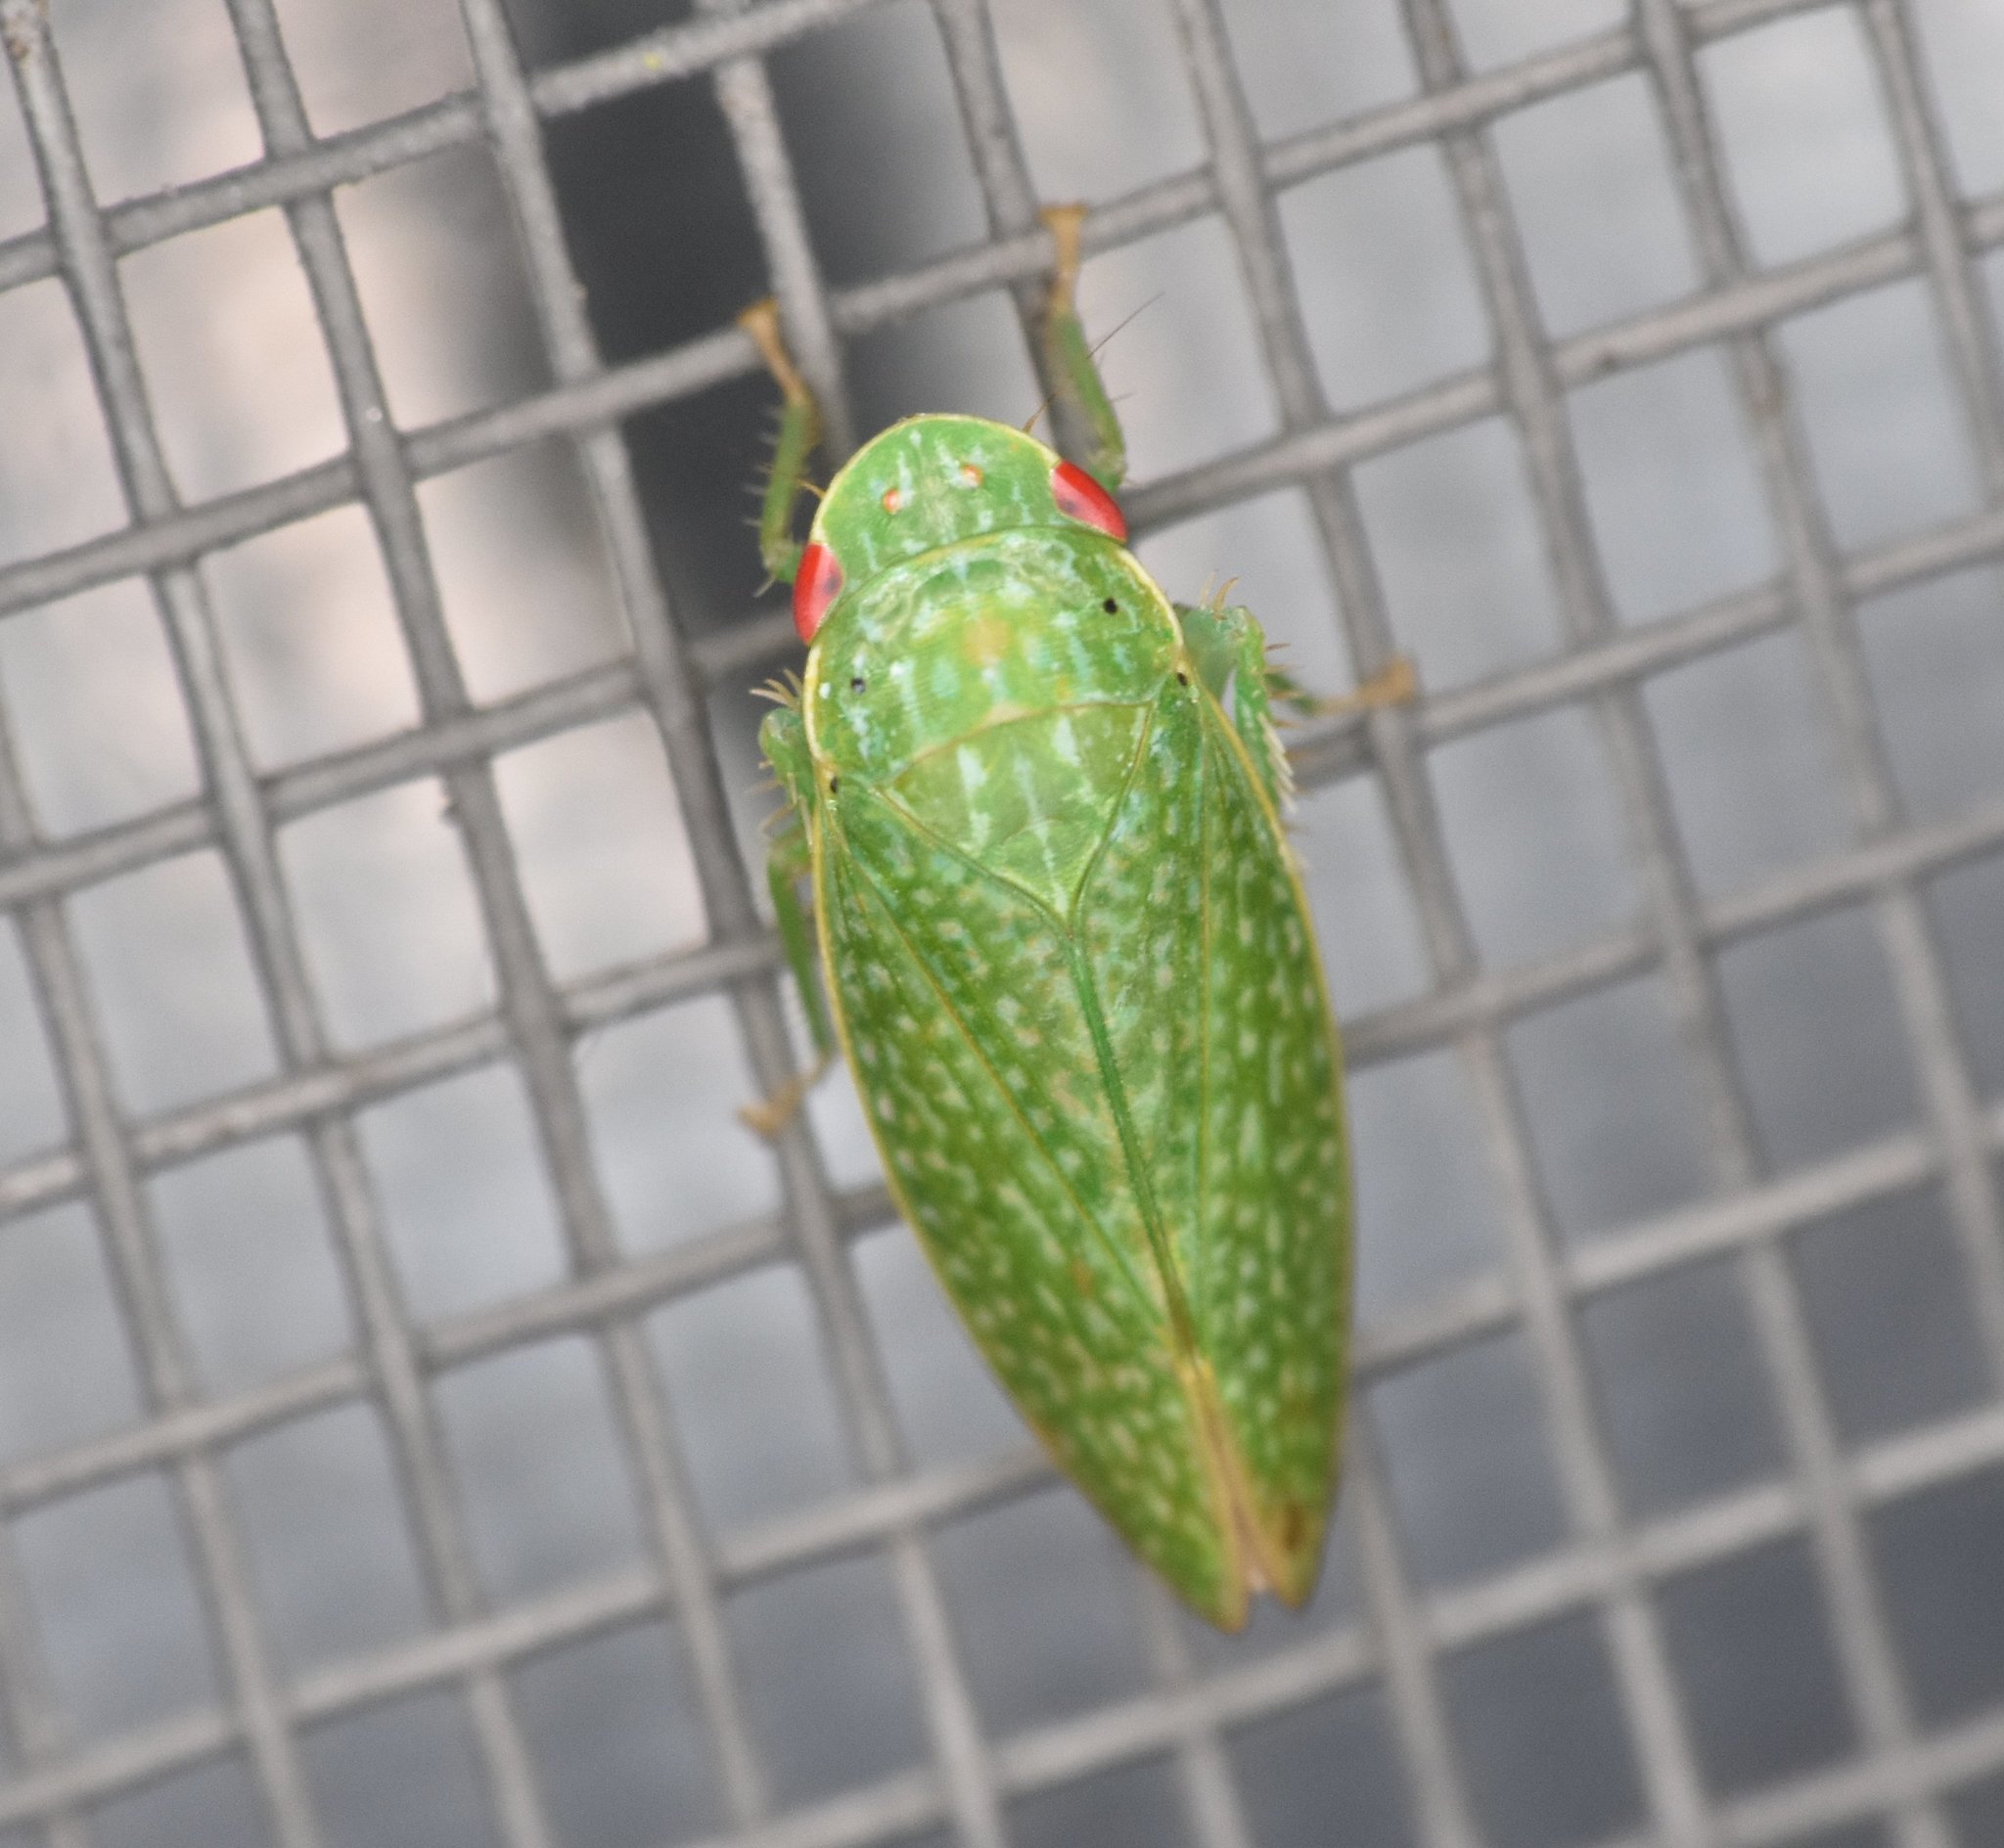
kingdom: Animalia
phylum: Arthropoda
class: Insecta
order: Hemiptera
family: Cicadellidae
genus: Rugosana
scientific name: Rugosana querci
